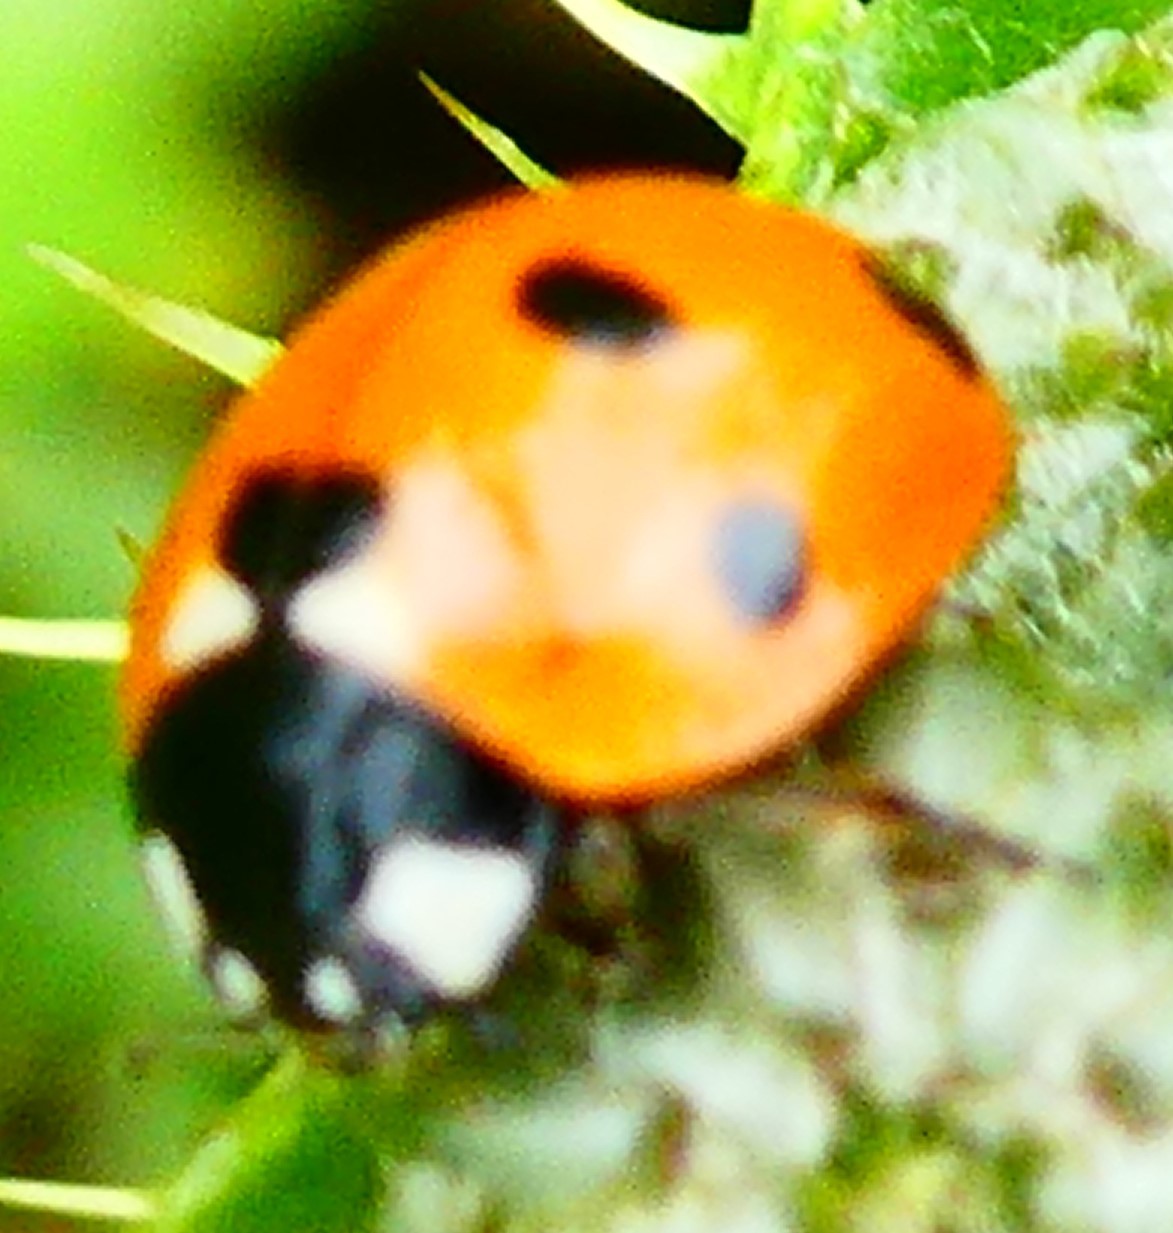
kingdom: Animalia
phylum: Arthropoda
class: Insecta
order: Coleoptera
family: Coccinellidae
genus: Coccinella
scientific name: Coccinella septempunctata
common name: Sevenspotted lady beetle
